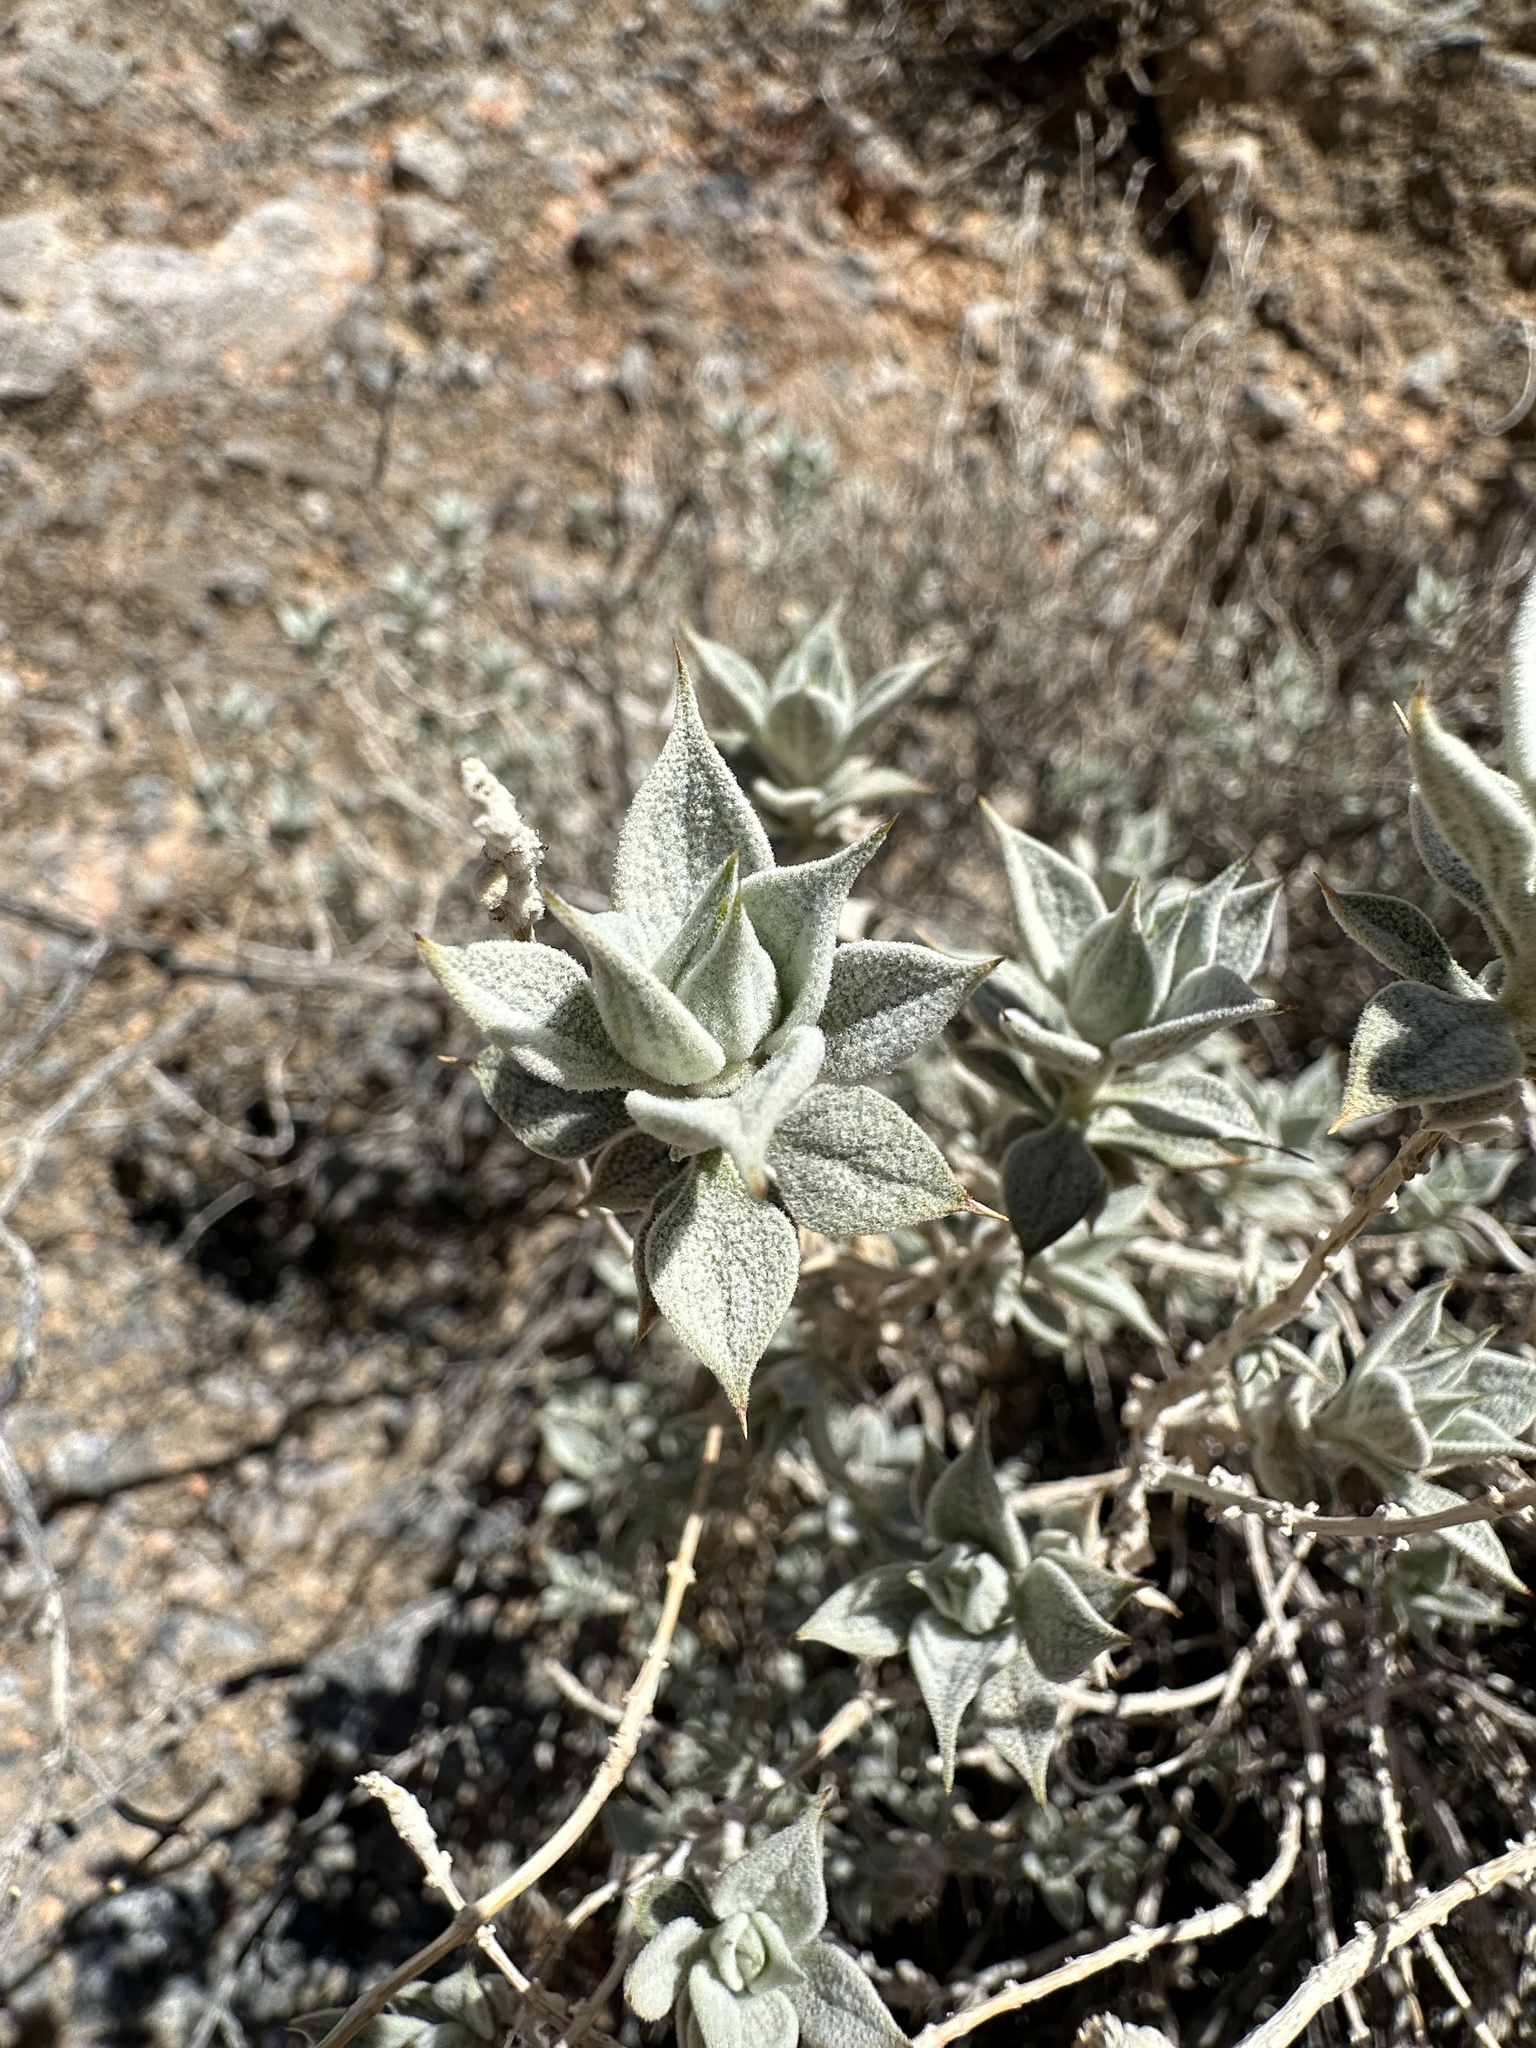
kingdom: Plantae
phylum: Tracheophyta
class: Magnoliopsida
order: Lamiales
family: Lamiaceae
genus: Salvia
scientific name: Salvia funerea
